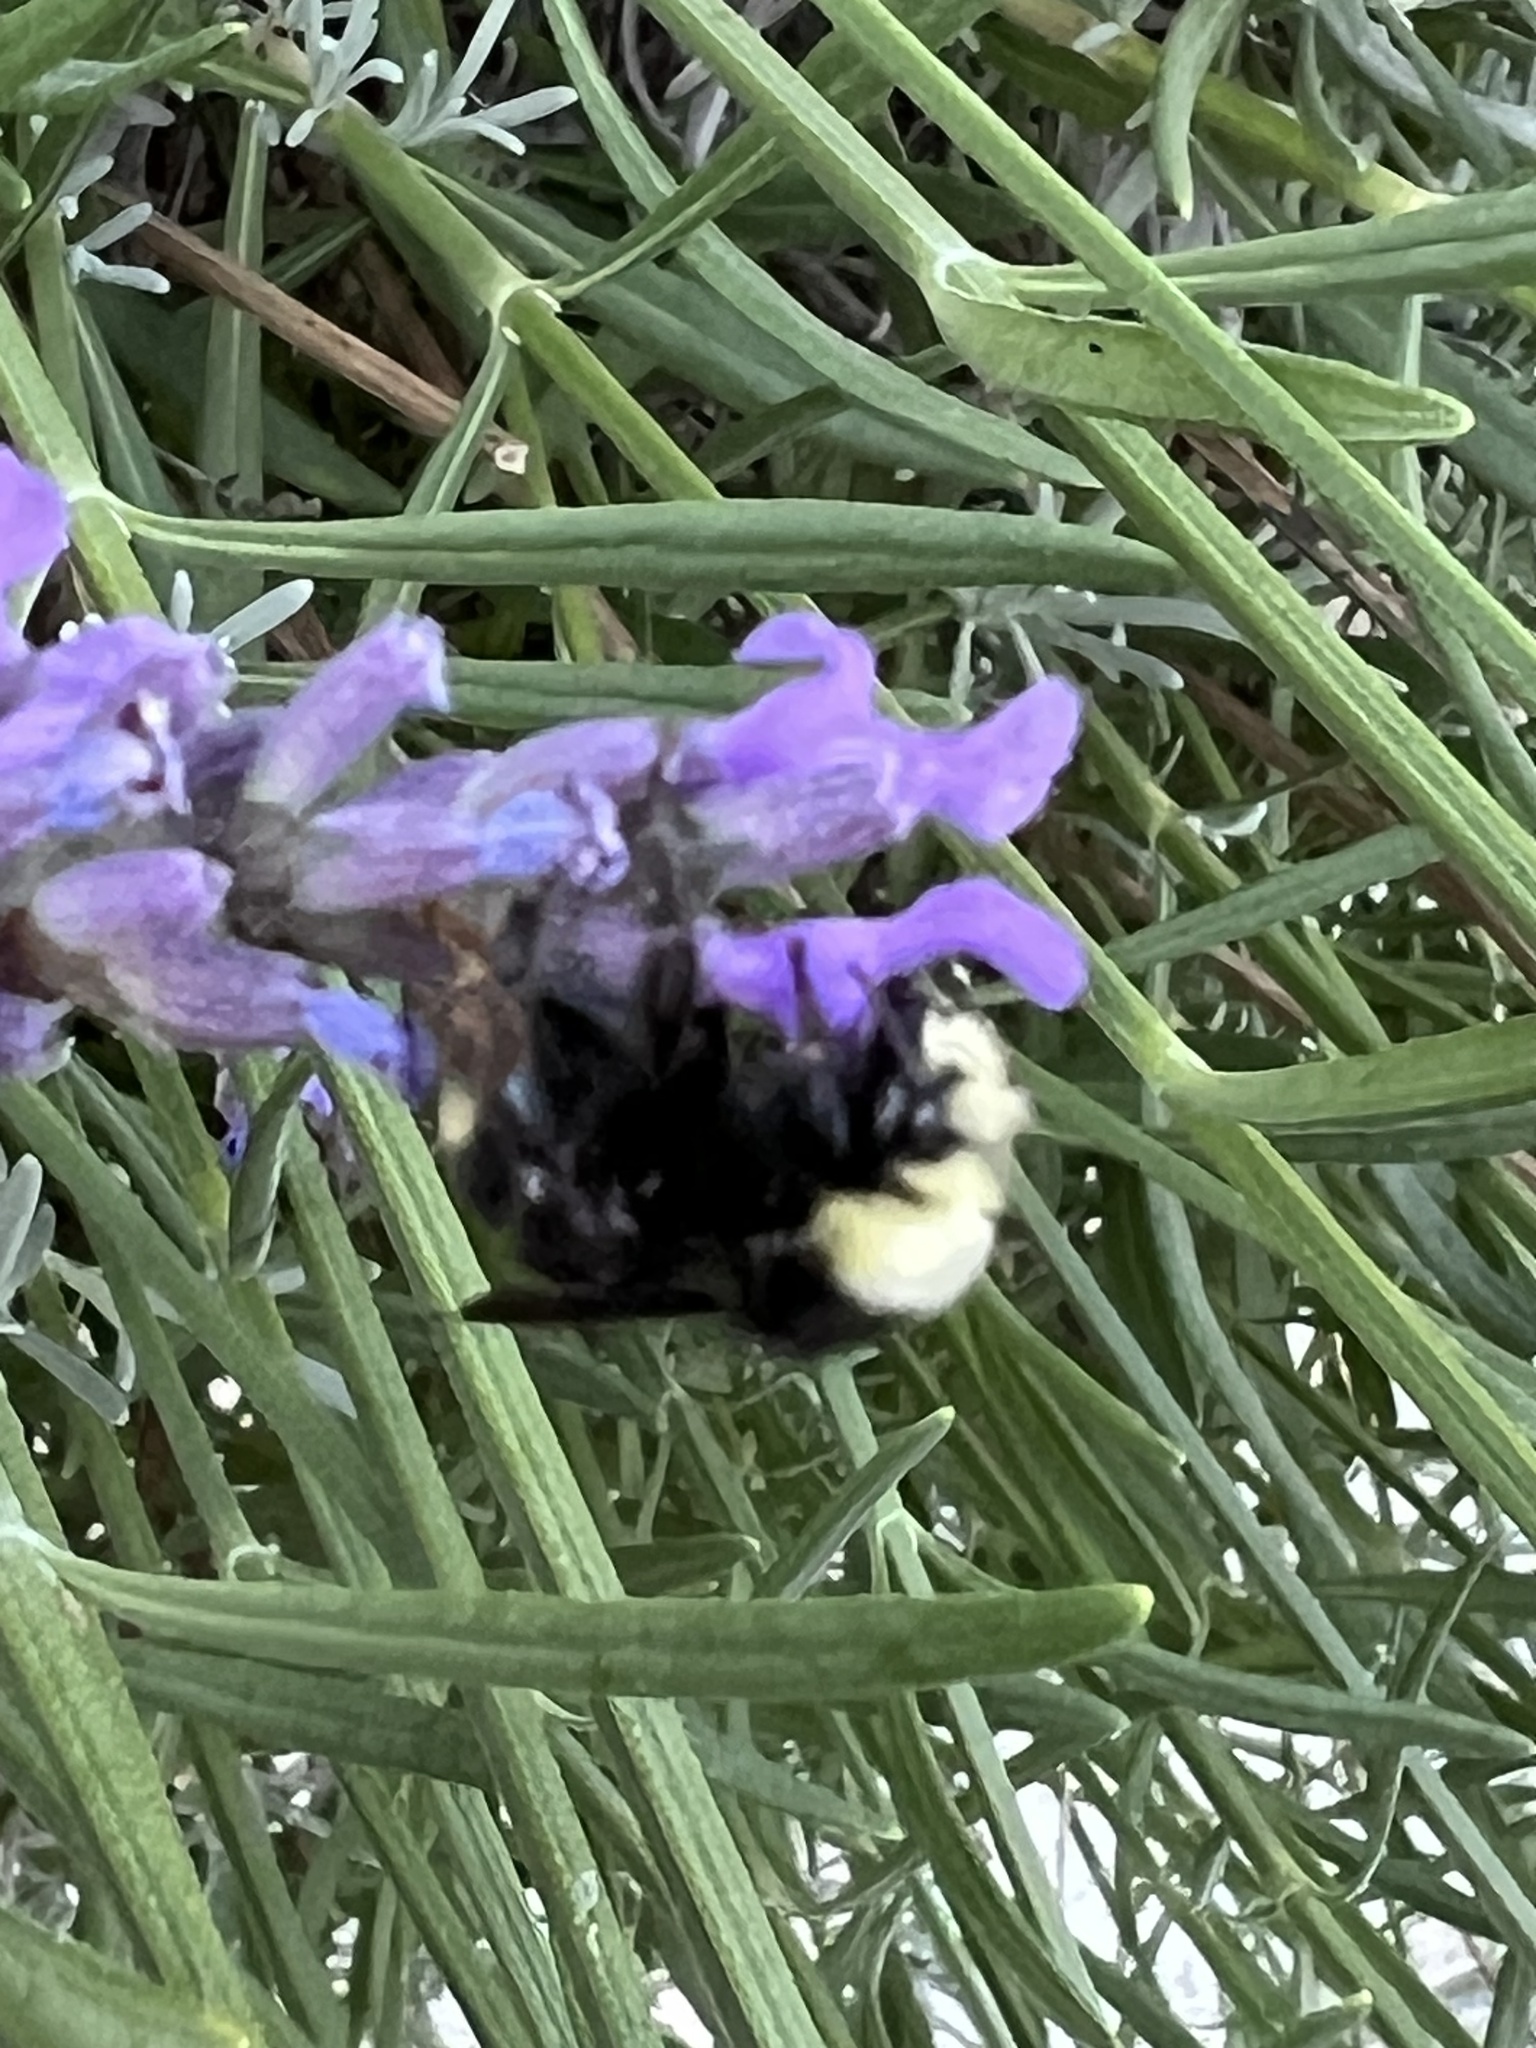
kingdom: Animalia
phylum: Arthropoda
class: Insecta
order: Hymenoptera
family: Apidae
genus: Bombus
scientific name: Bombus vosnesenskii
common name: Vosnesensky bumble bee
